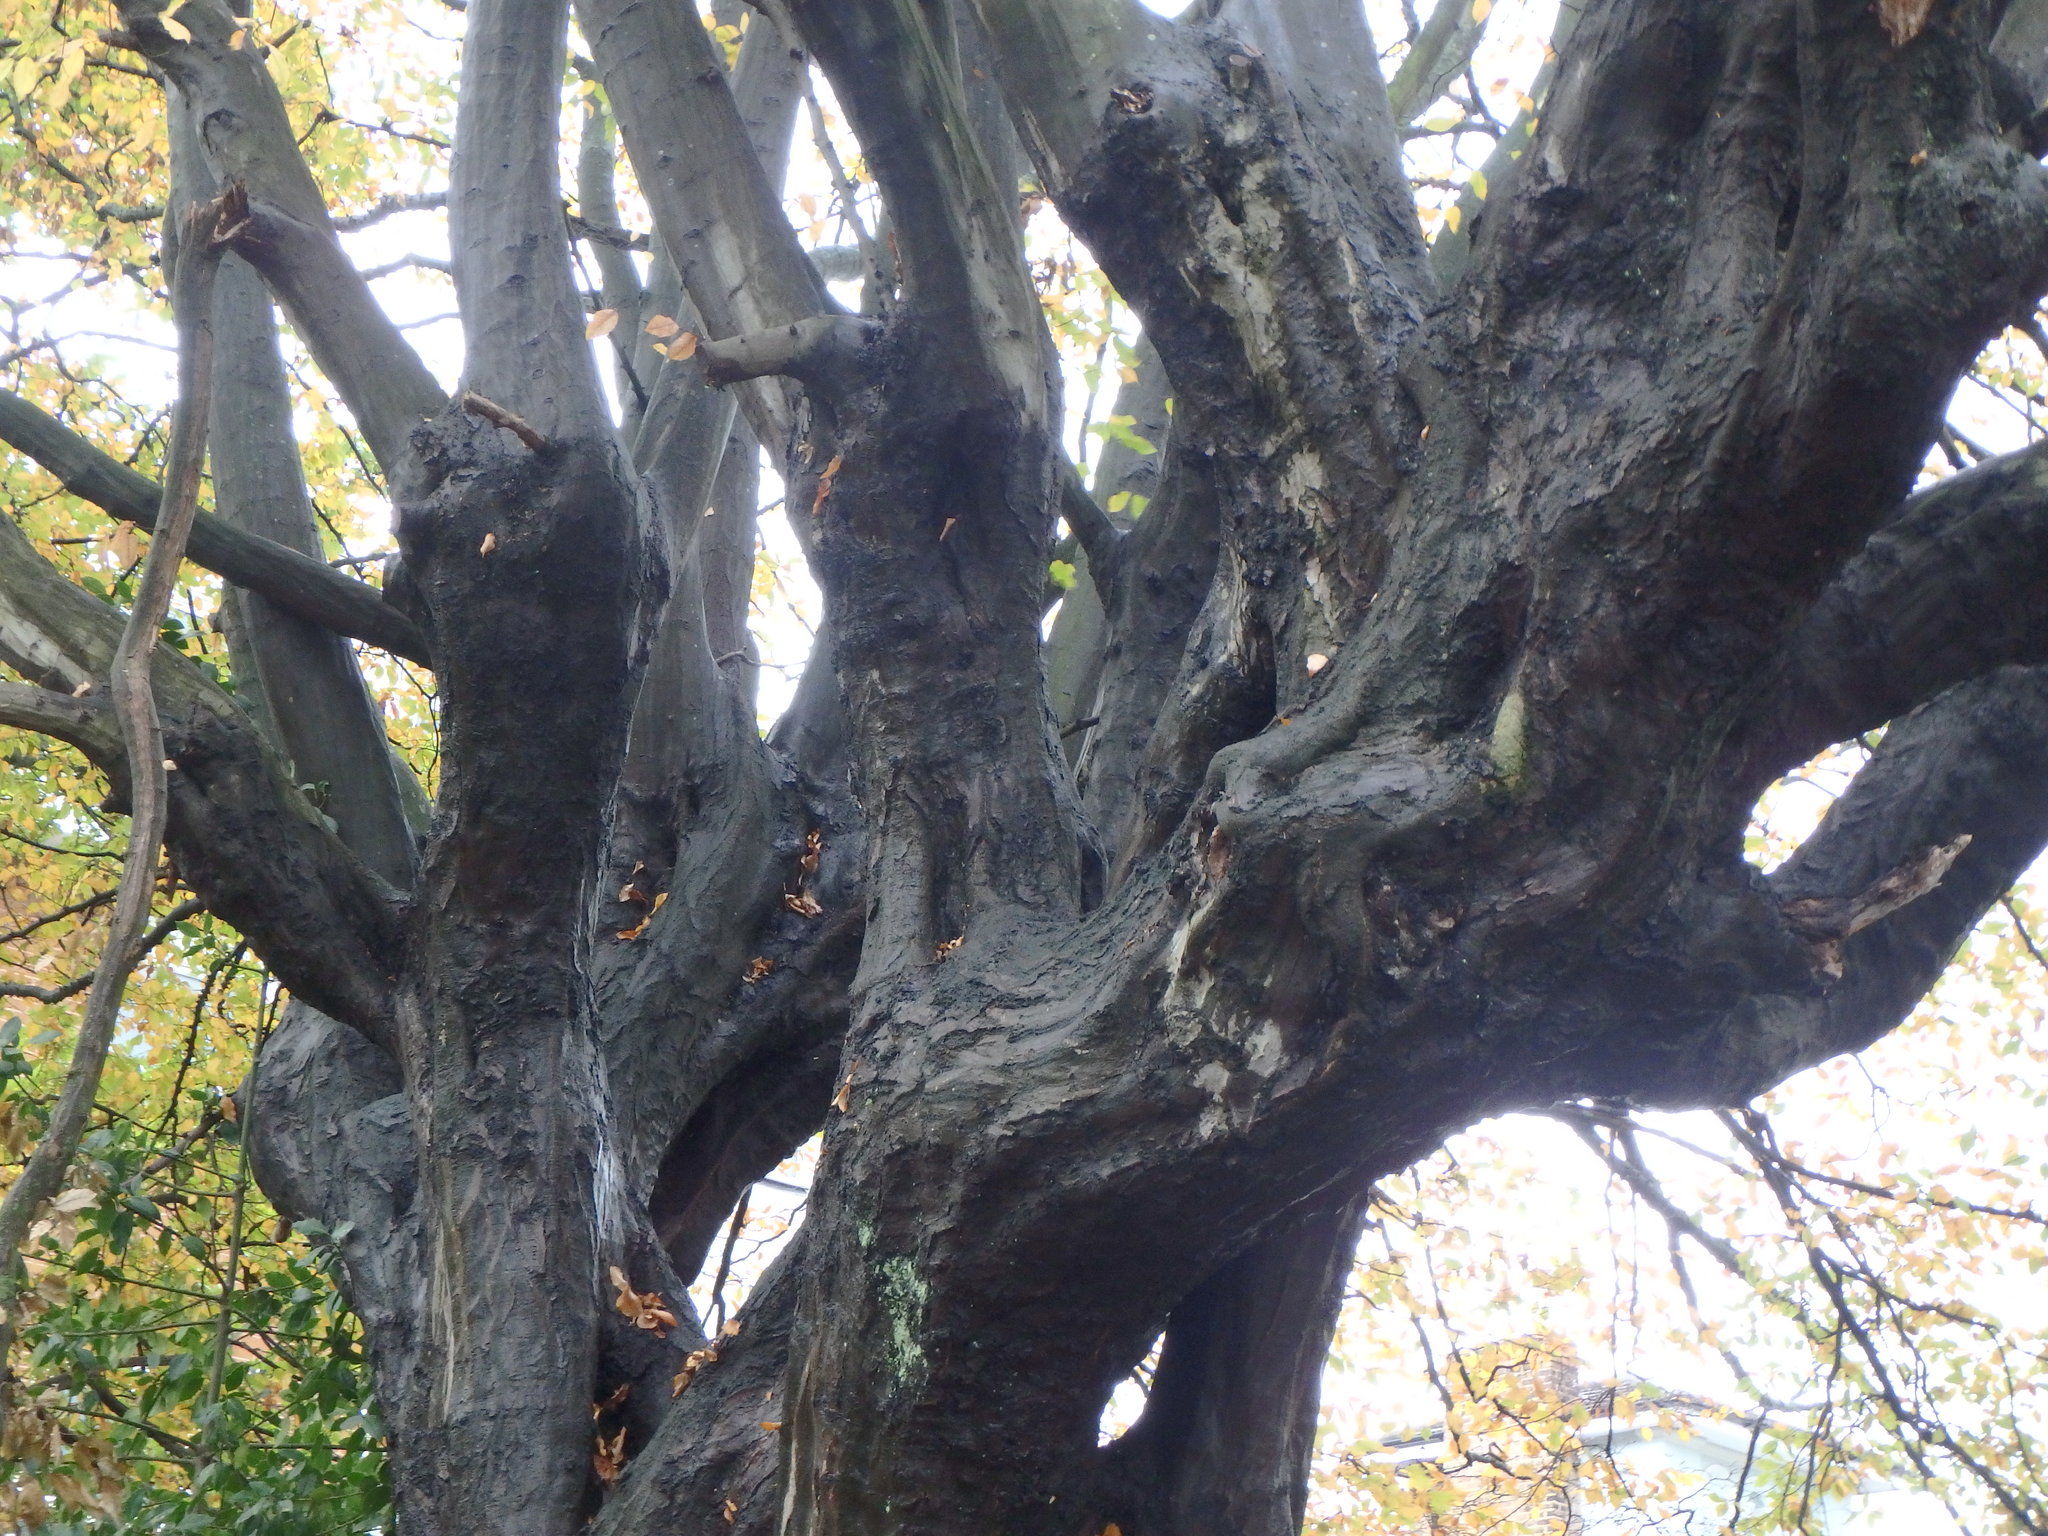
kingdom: Plantae
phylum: Tracheophyta
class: Magnoliopsida
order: Fagales
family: Betulaceae
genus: Carpinus
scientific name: Carpinus betulus
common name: Hornbeam
